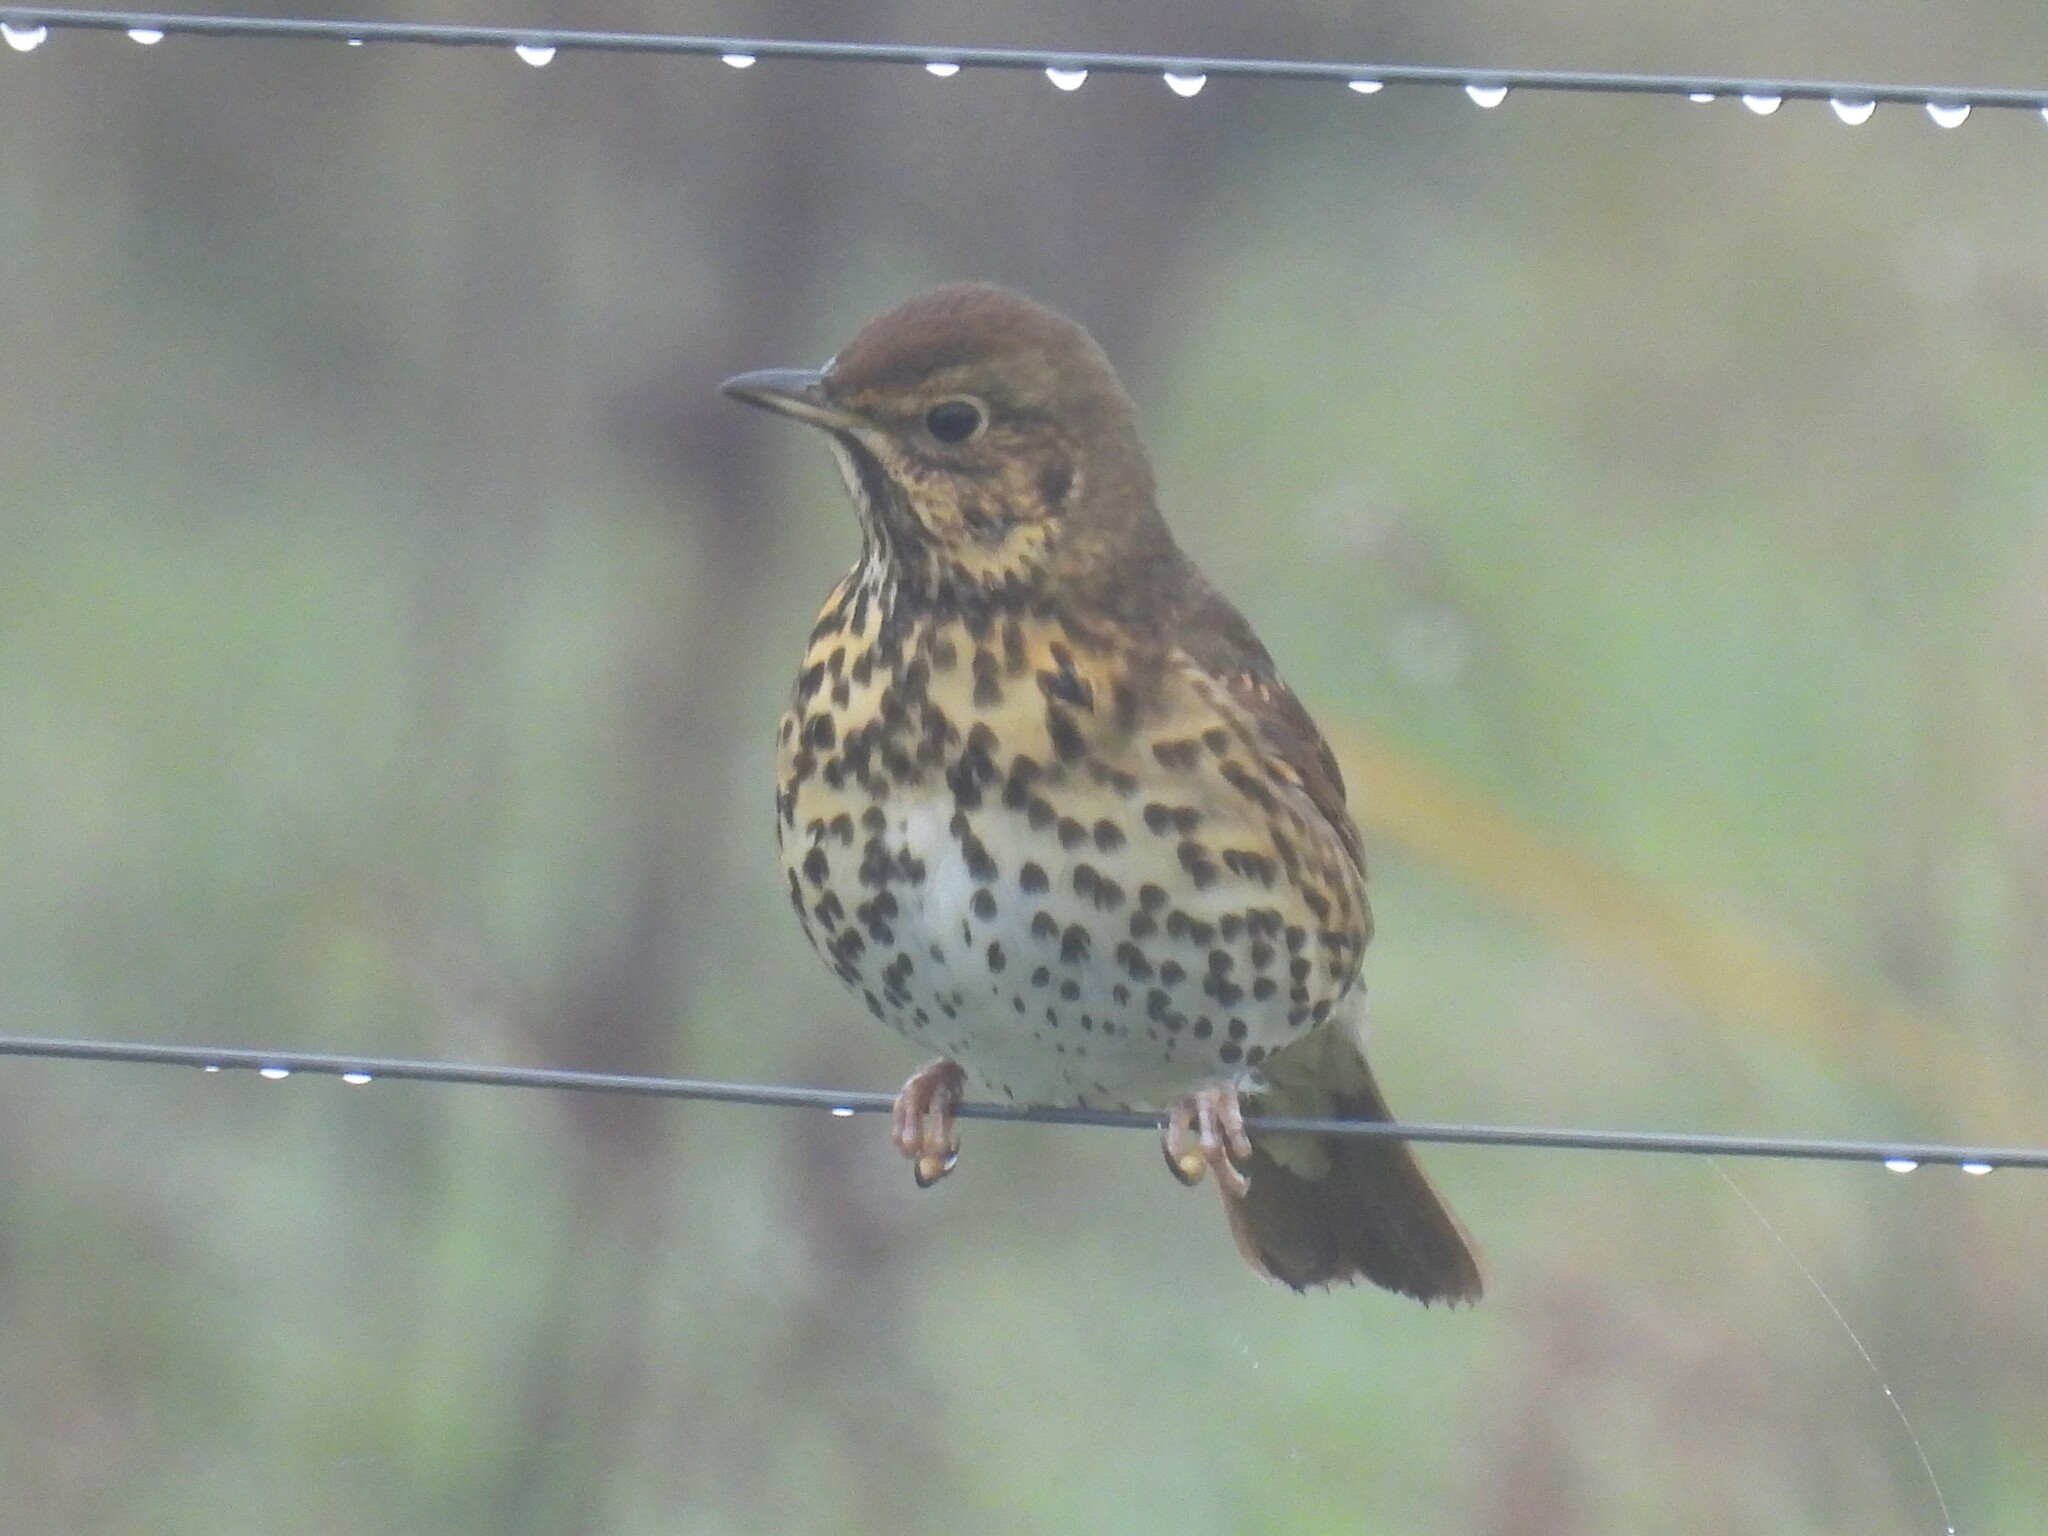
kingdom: Animalia
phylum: Chordata
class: Aves
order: Passeriformes
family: Turdidae
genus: Turdus
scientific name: Turdus philomelos
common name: Song thrush
